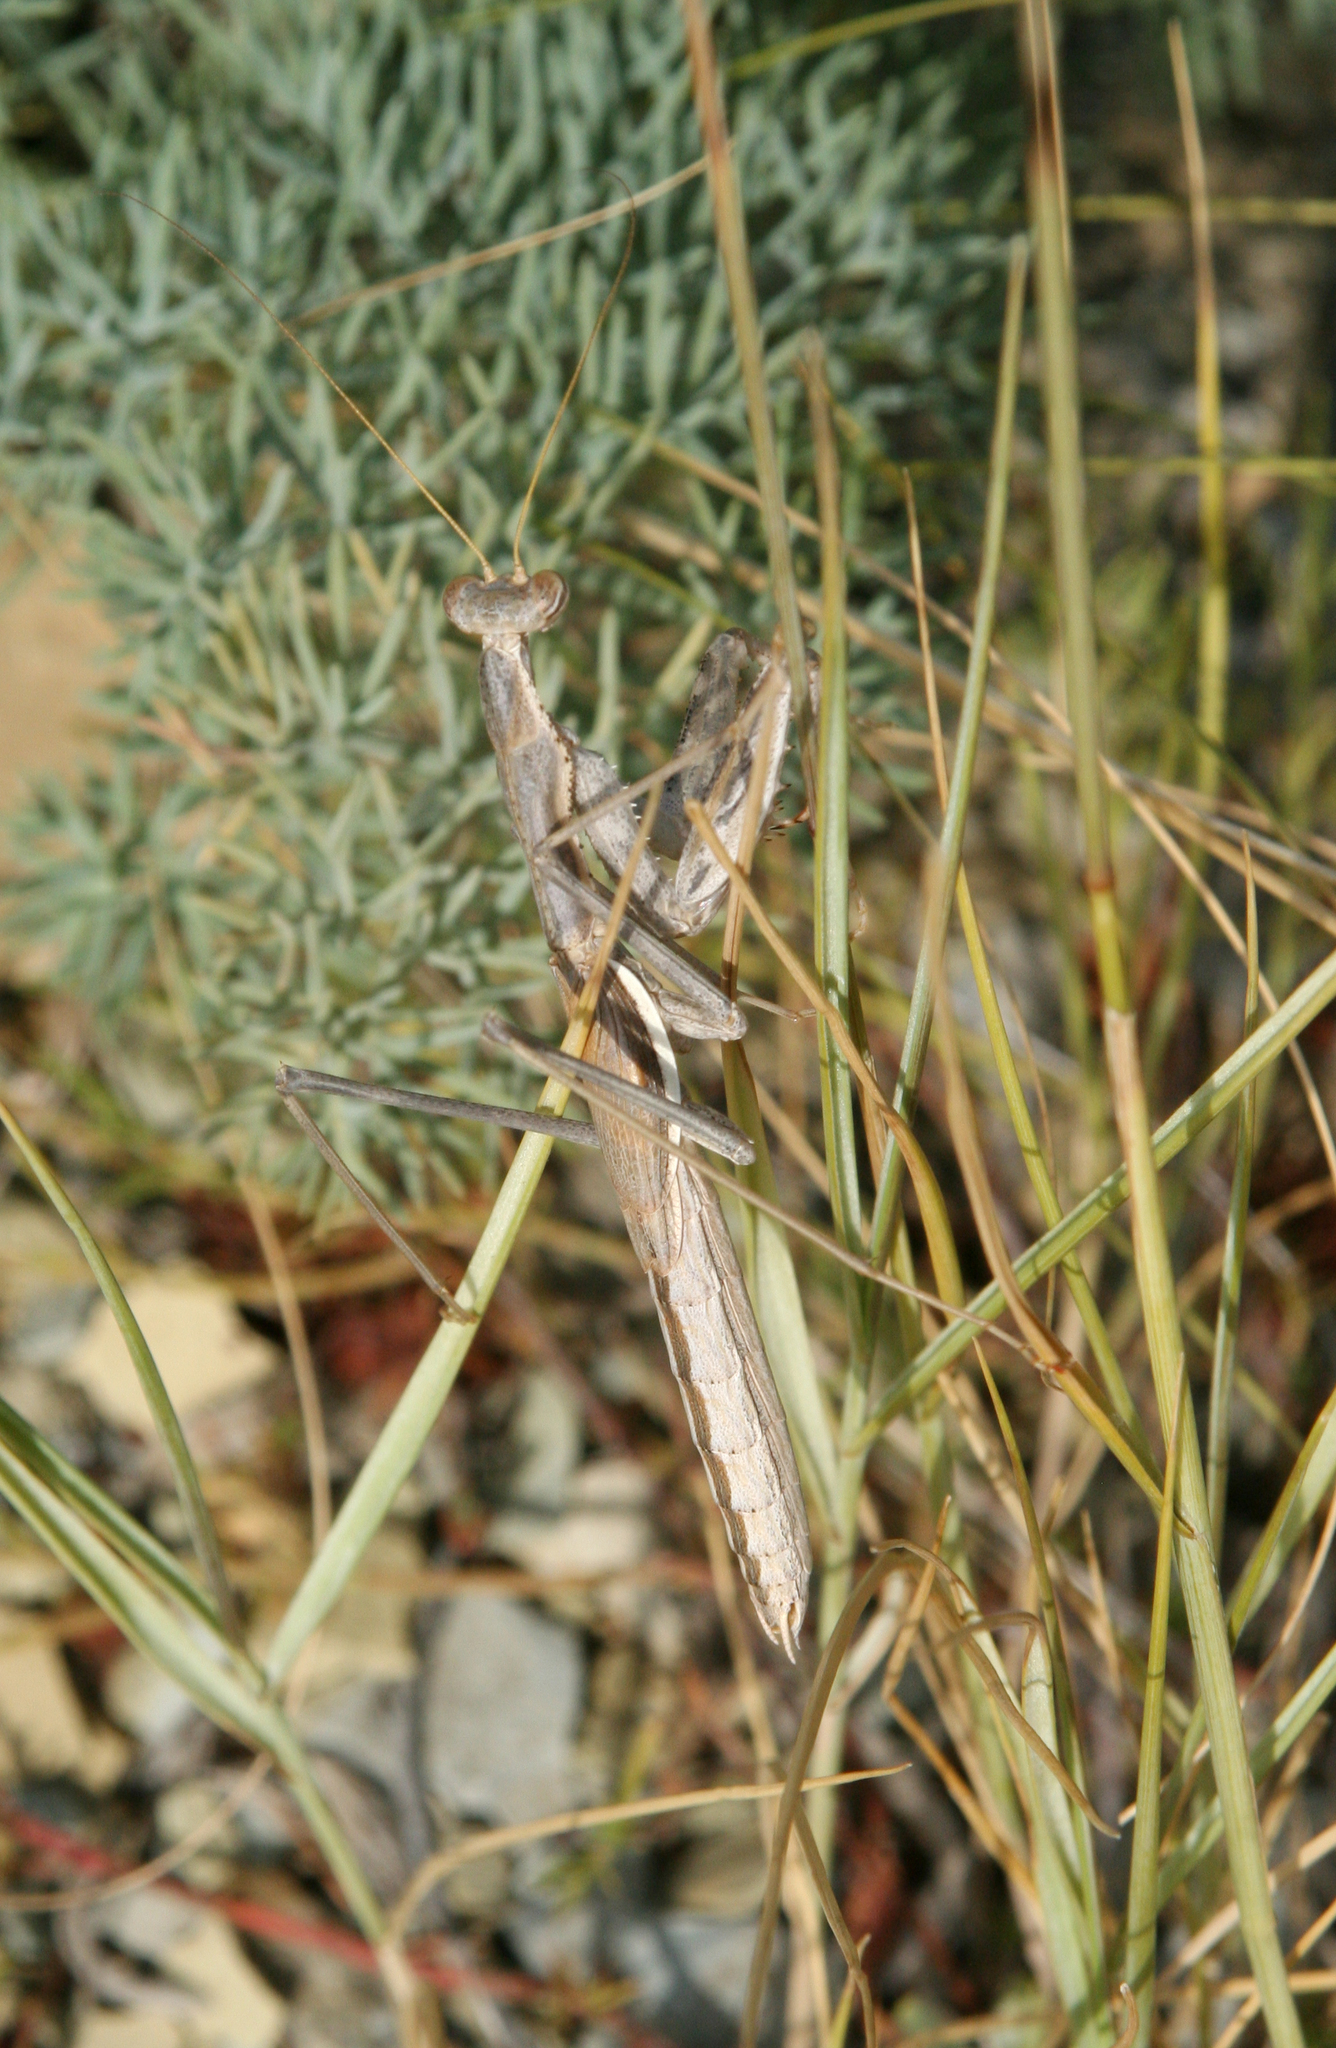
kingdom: Animalia
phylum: Arthropoda
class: Insecta
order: Mantodea
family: Rivetinidae
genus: Bolivaria
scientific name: Bolivaria brachyptera
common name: Bolivar's short winged mantis
